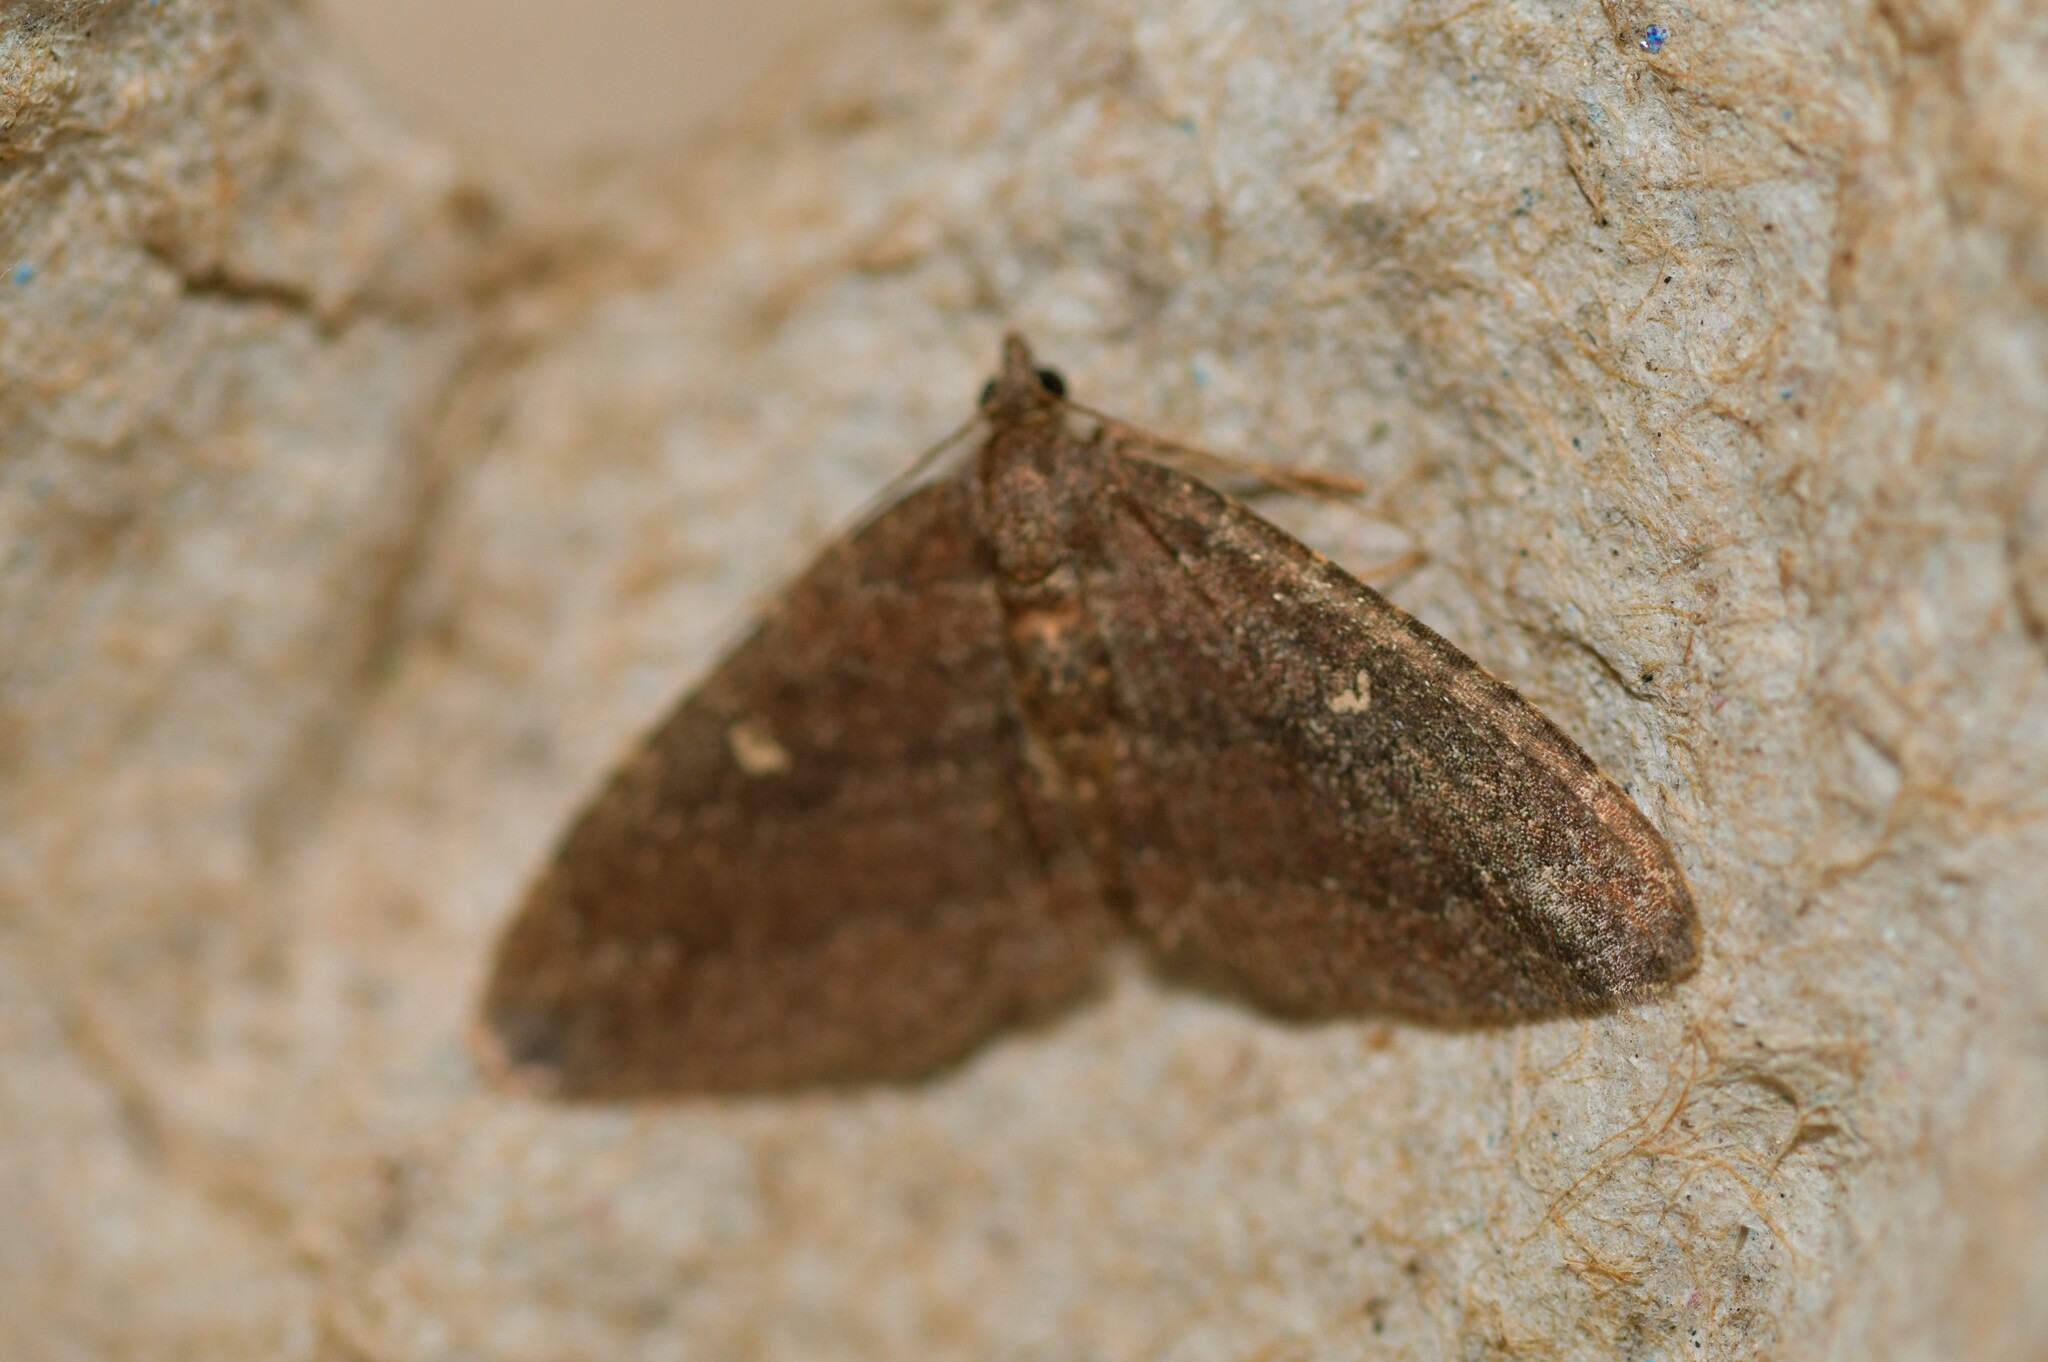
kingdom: Animalia
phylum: Arthropoda
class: Insecta
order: Lepidoptera
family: Geometridae
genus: Orthonama
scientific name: Orthonama obstipata
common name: The gem
